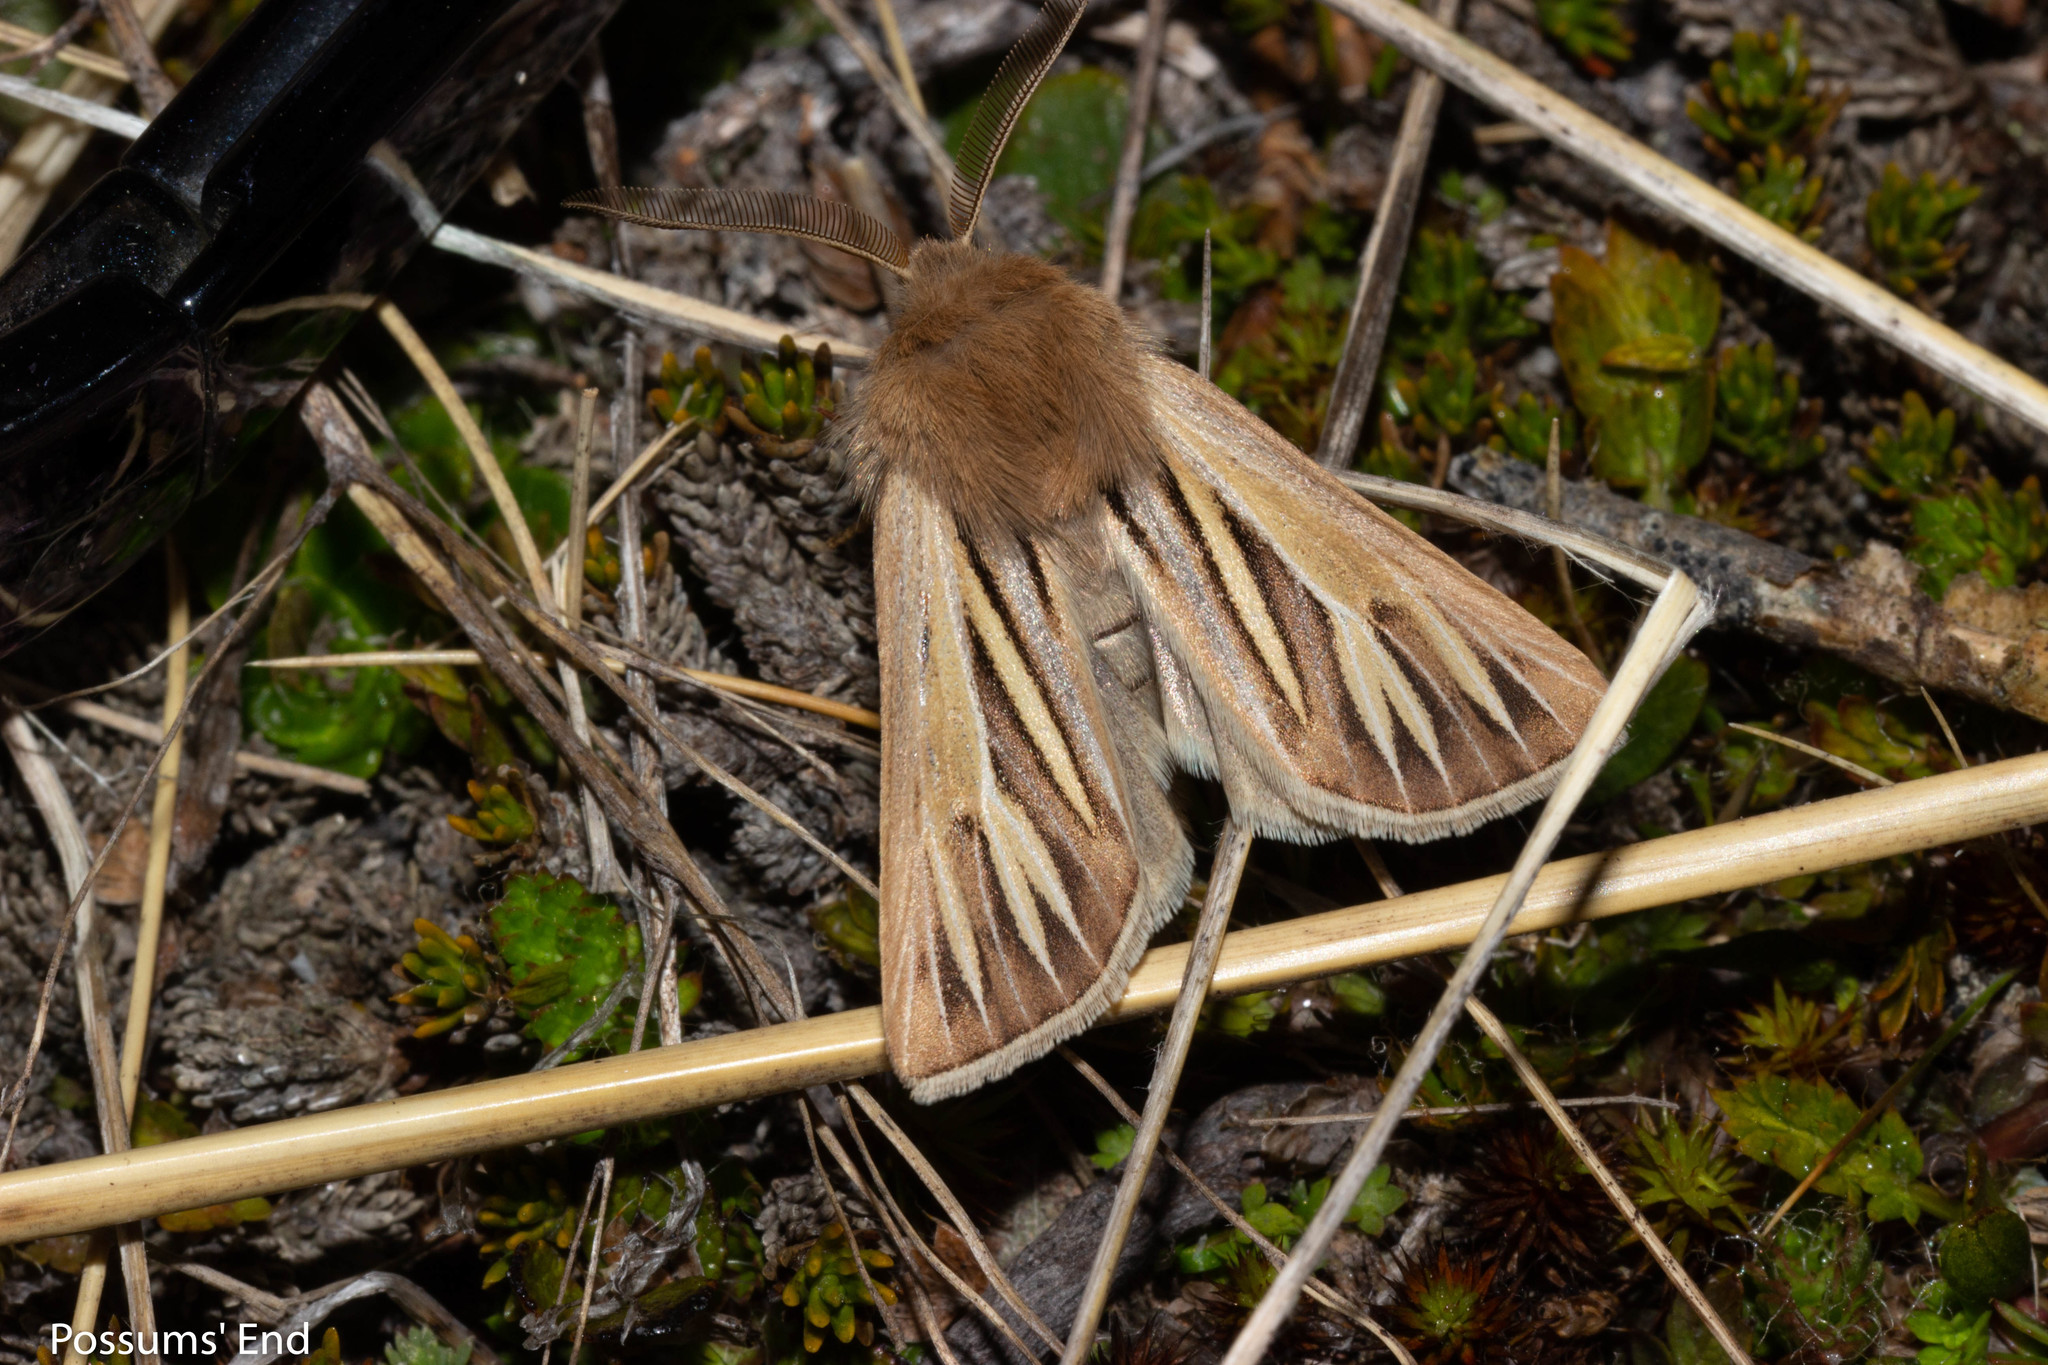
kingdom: Animalia
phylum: Arthropoda
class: Insecta
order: Lepidoptera
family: Noctuidae
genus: Ichneutica
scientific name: Ichneutica caraunias
